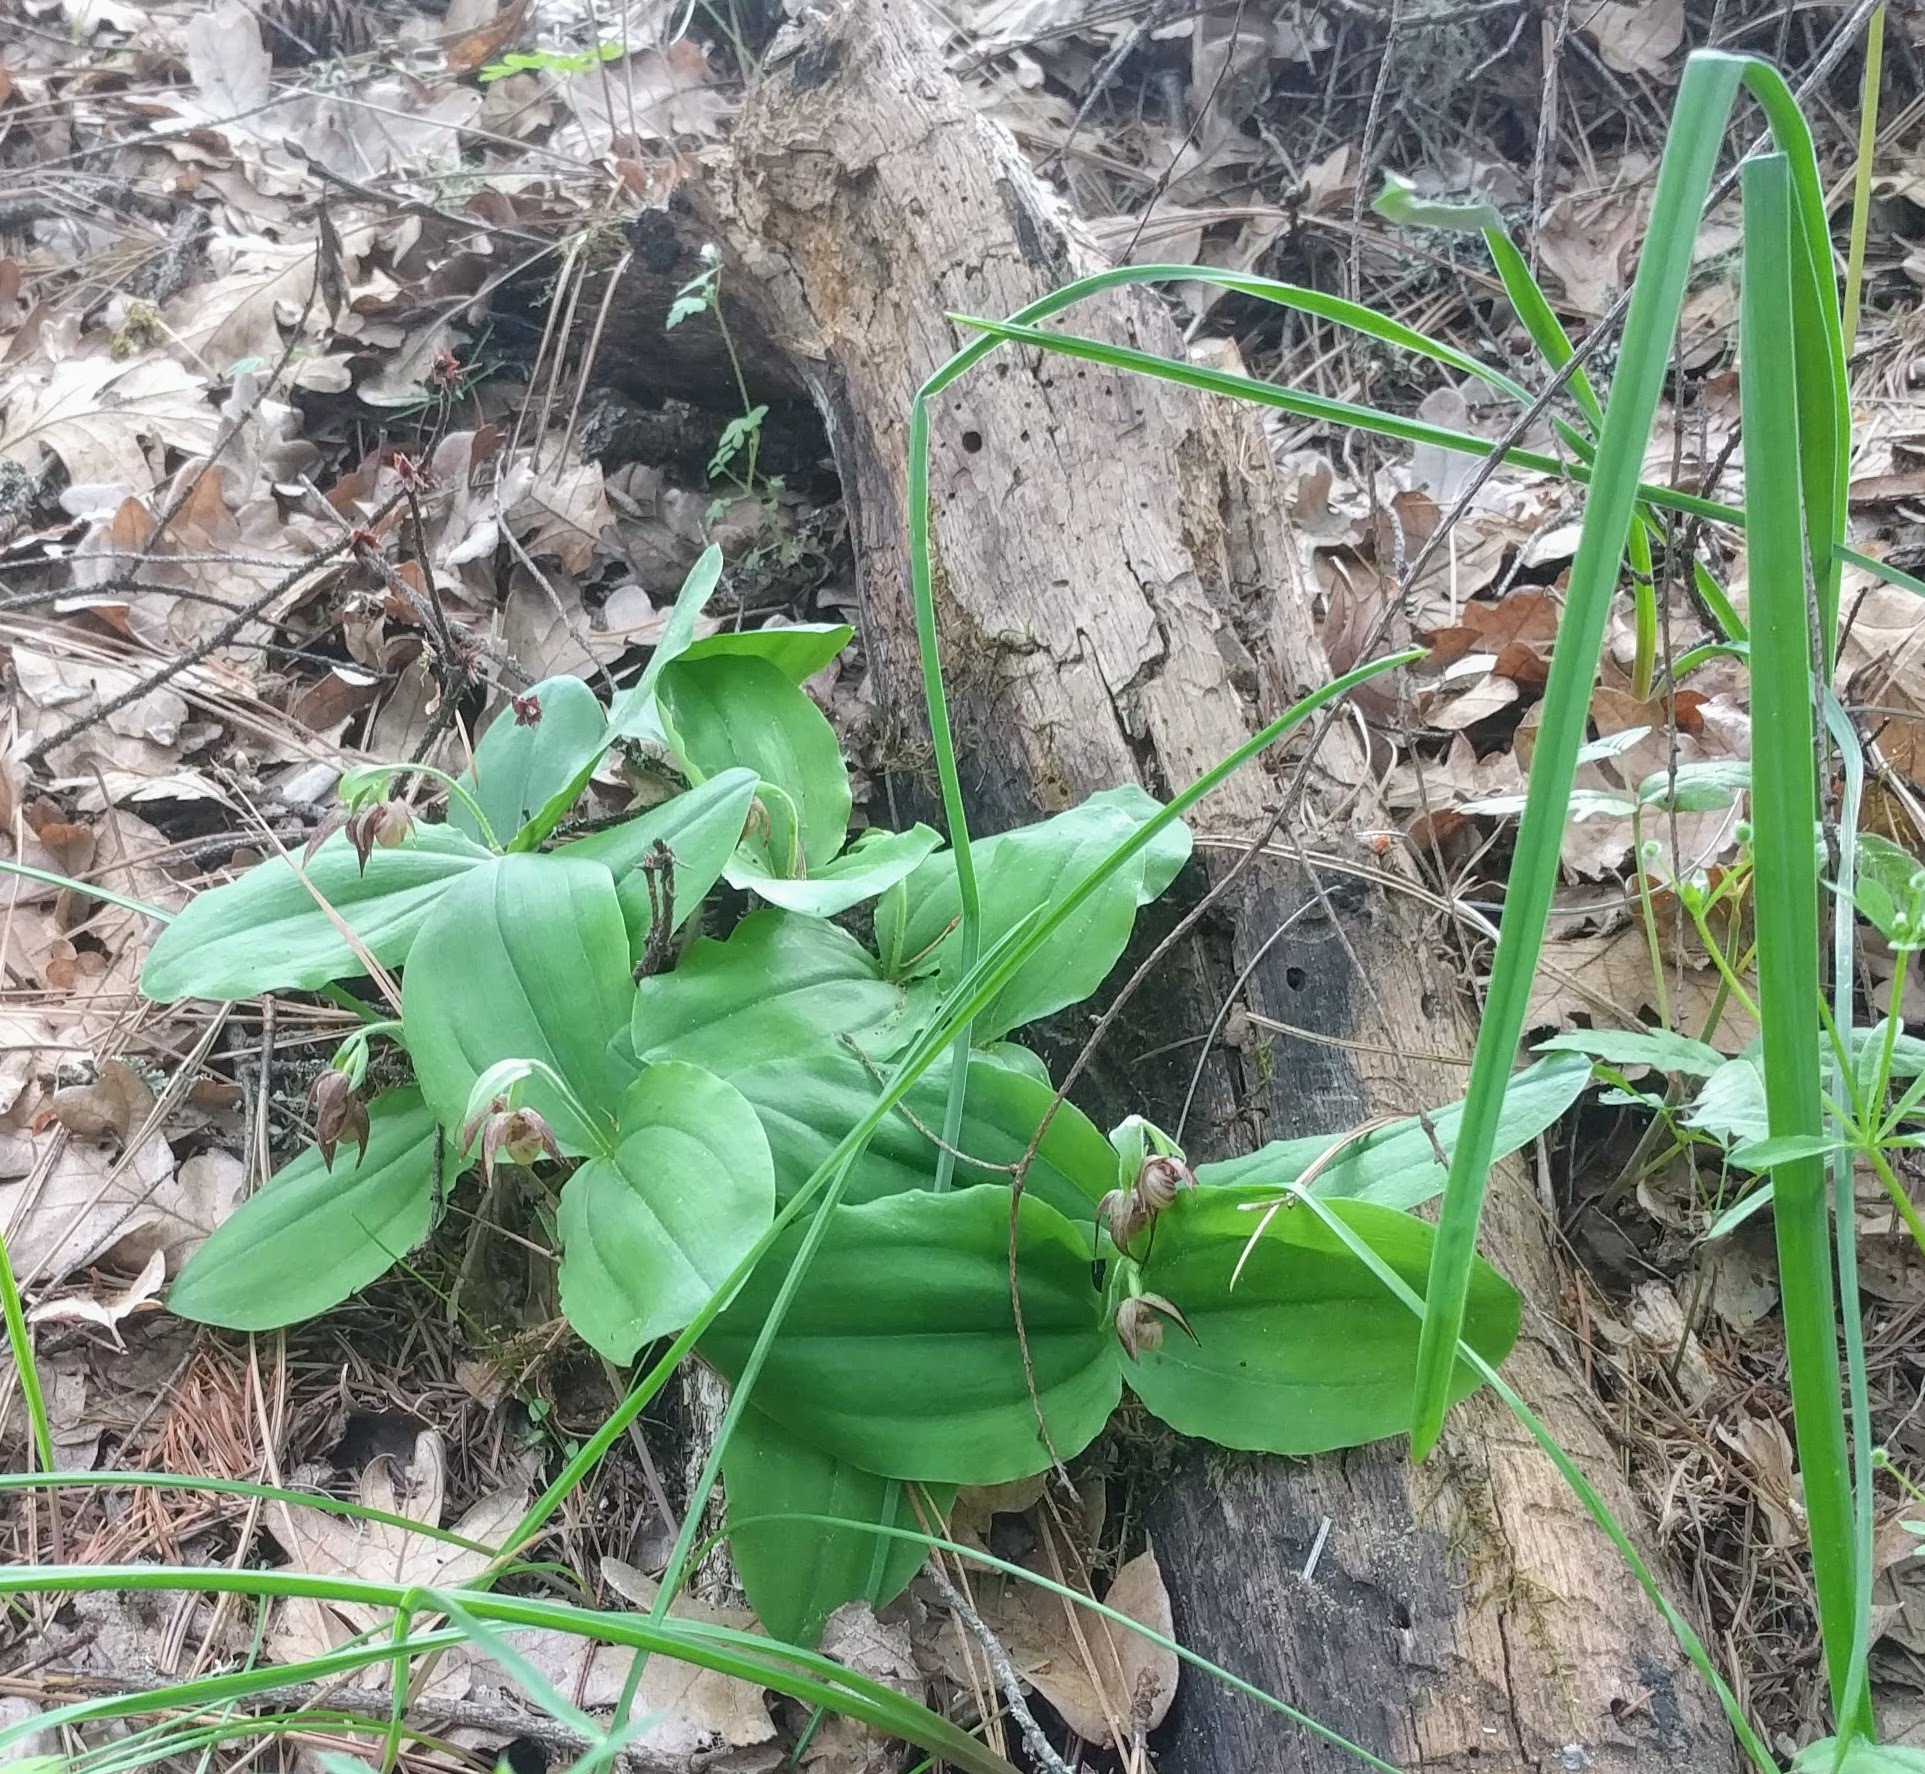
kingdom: Plantae
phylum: Tracheophyta
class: Liliopsida
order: Asparagales
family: Orchidaceae
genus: Cypripedium
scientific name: Cypripedium fasciculatum
